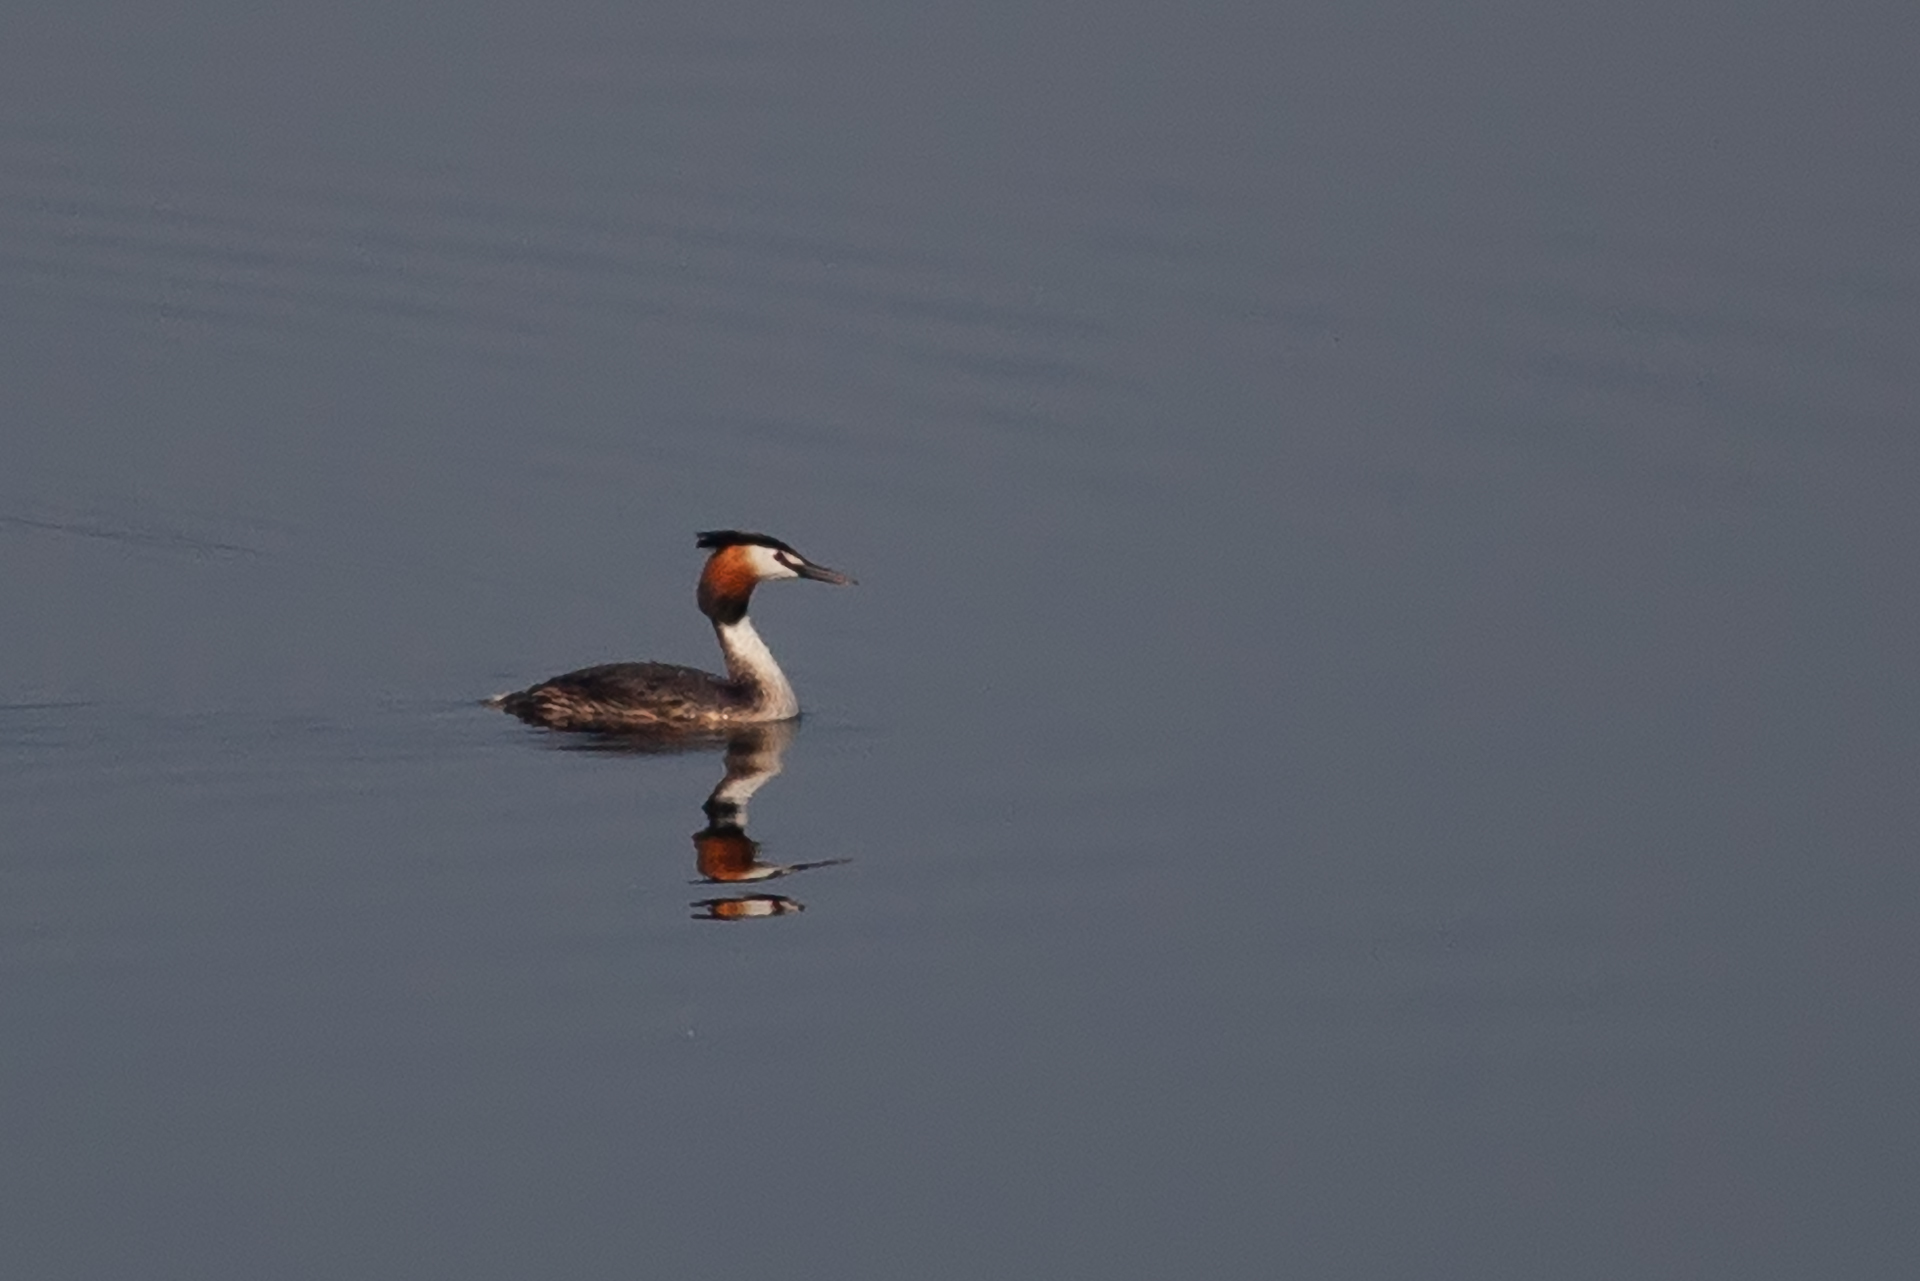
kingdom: Animalia
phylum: Chordata
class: Aves
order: Podicipediformes
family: Podicipedidae
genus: Podiceps
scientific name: Podiceps cristatus
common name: Great crested grebe
